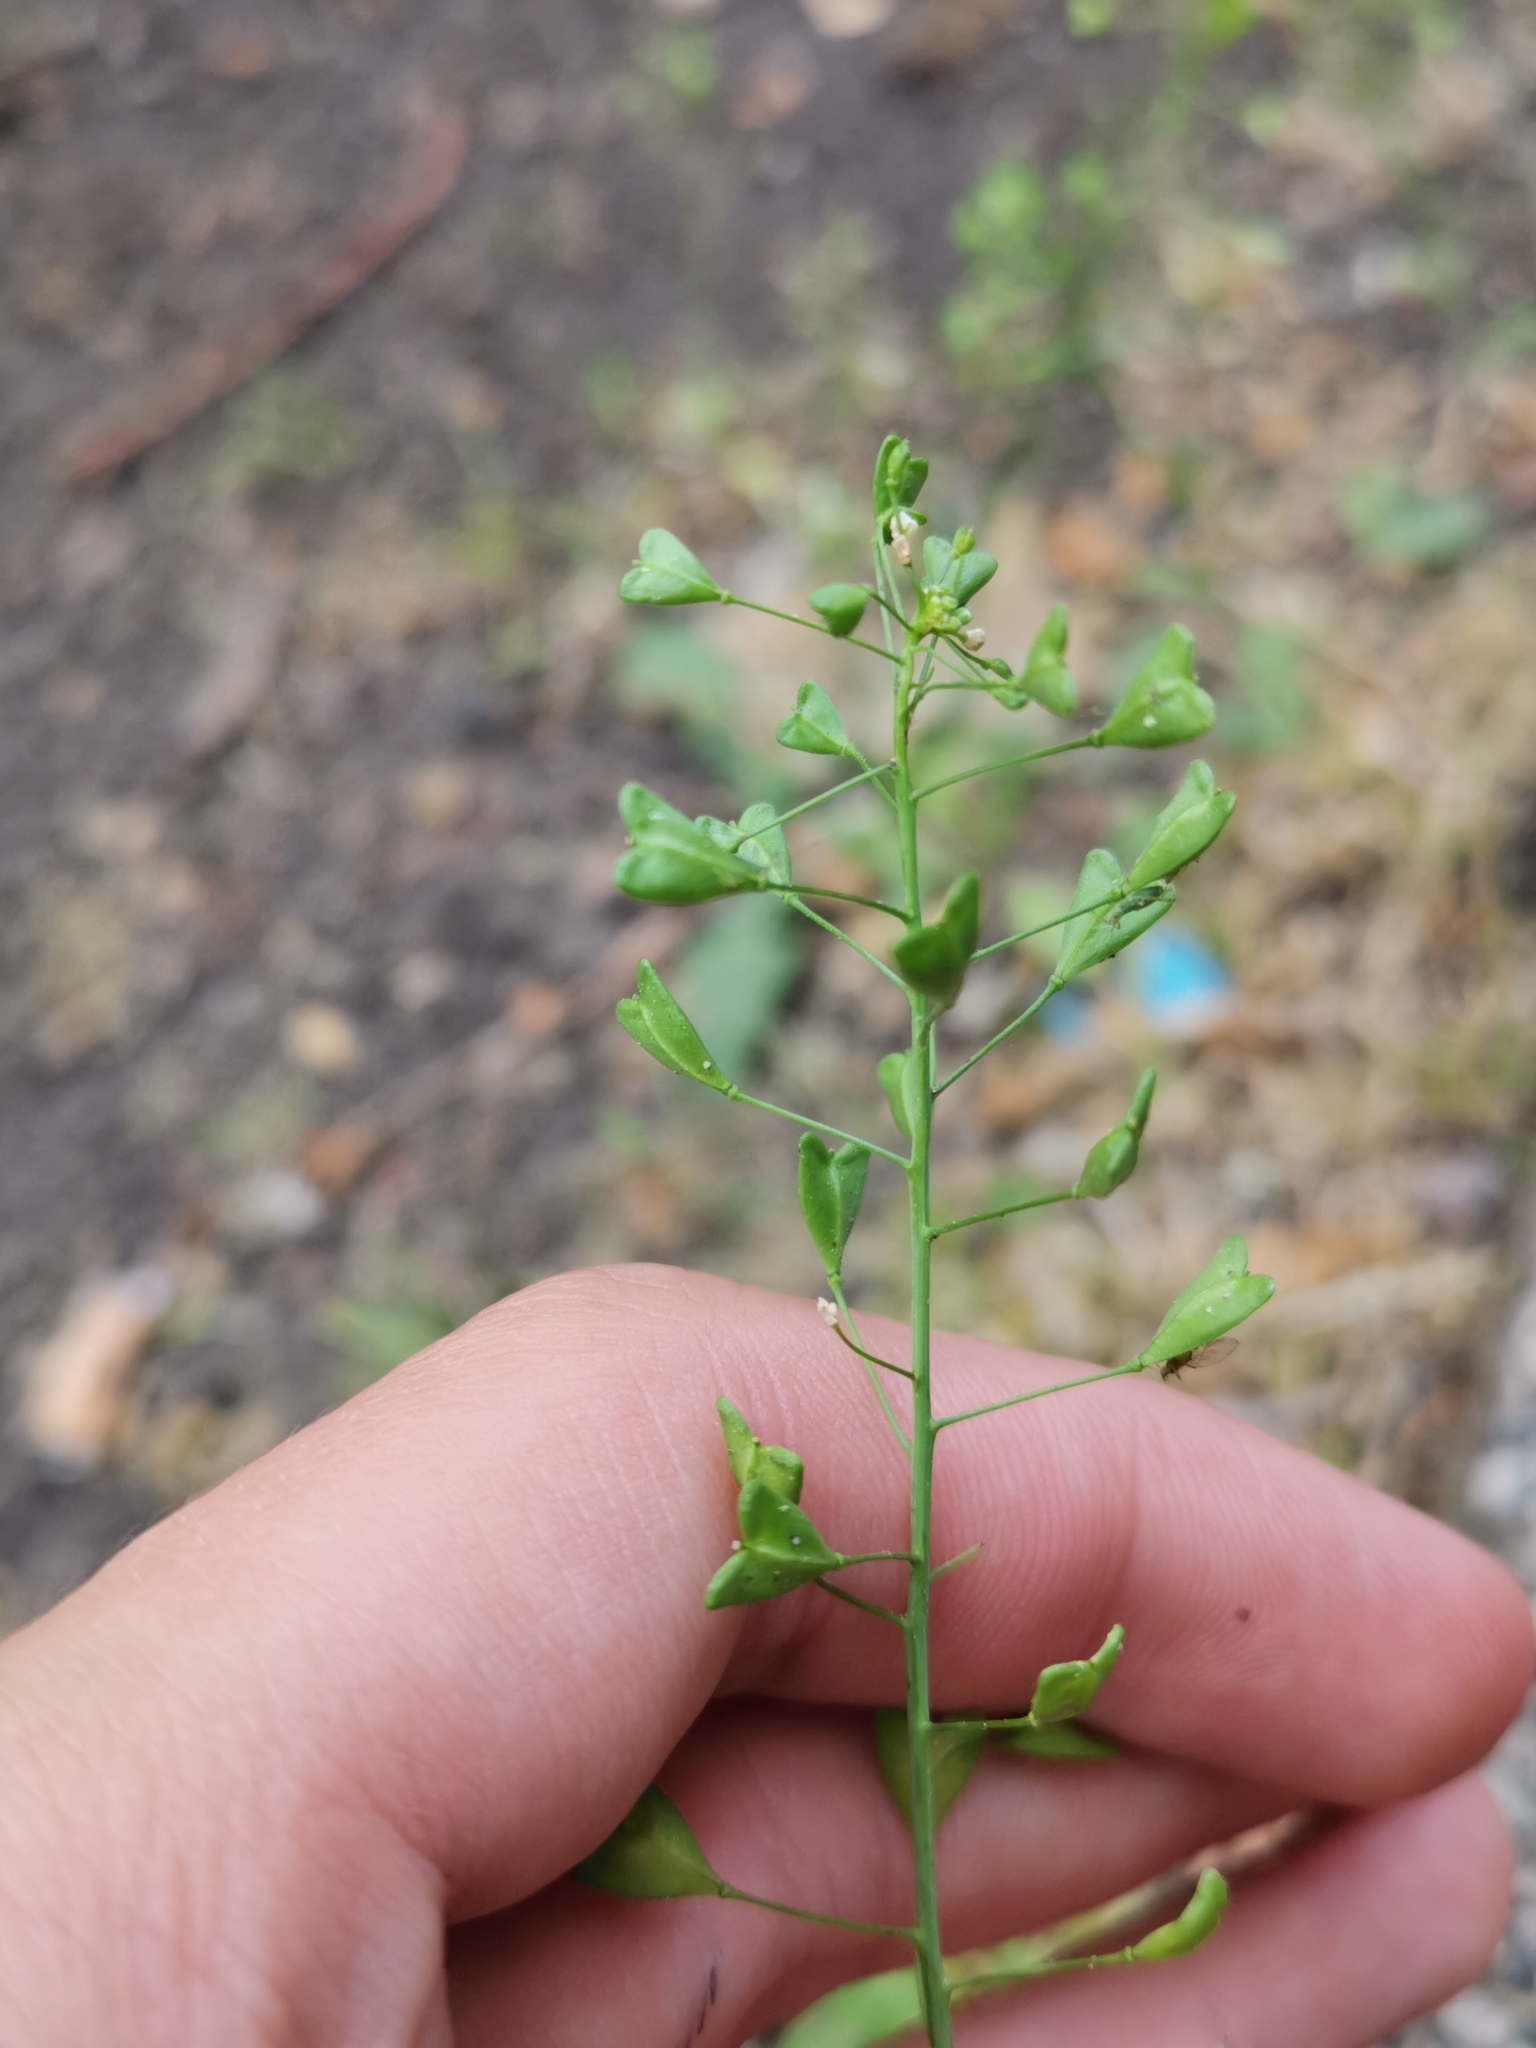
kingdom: Plantae
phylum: Tracheophyta
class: Magnoliopsida
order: Brassicales
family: Brassicaceae
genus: Capsella
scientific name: Capsella bursa-pastoris
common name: Shepherd's purse
